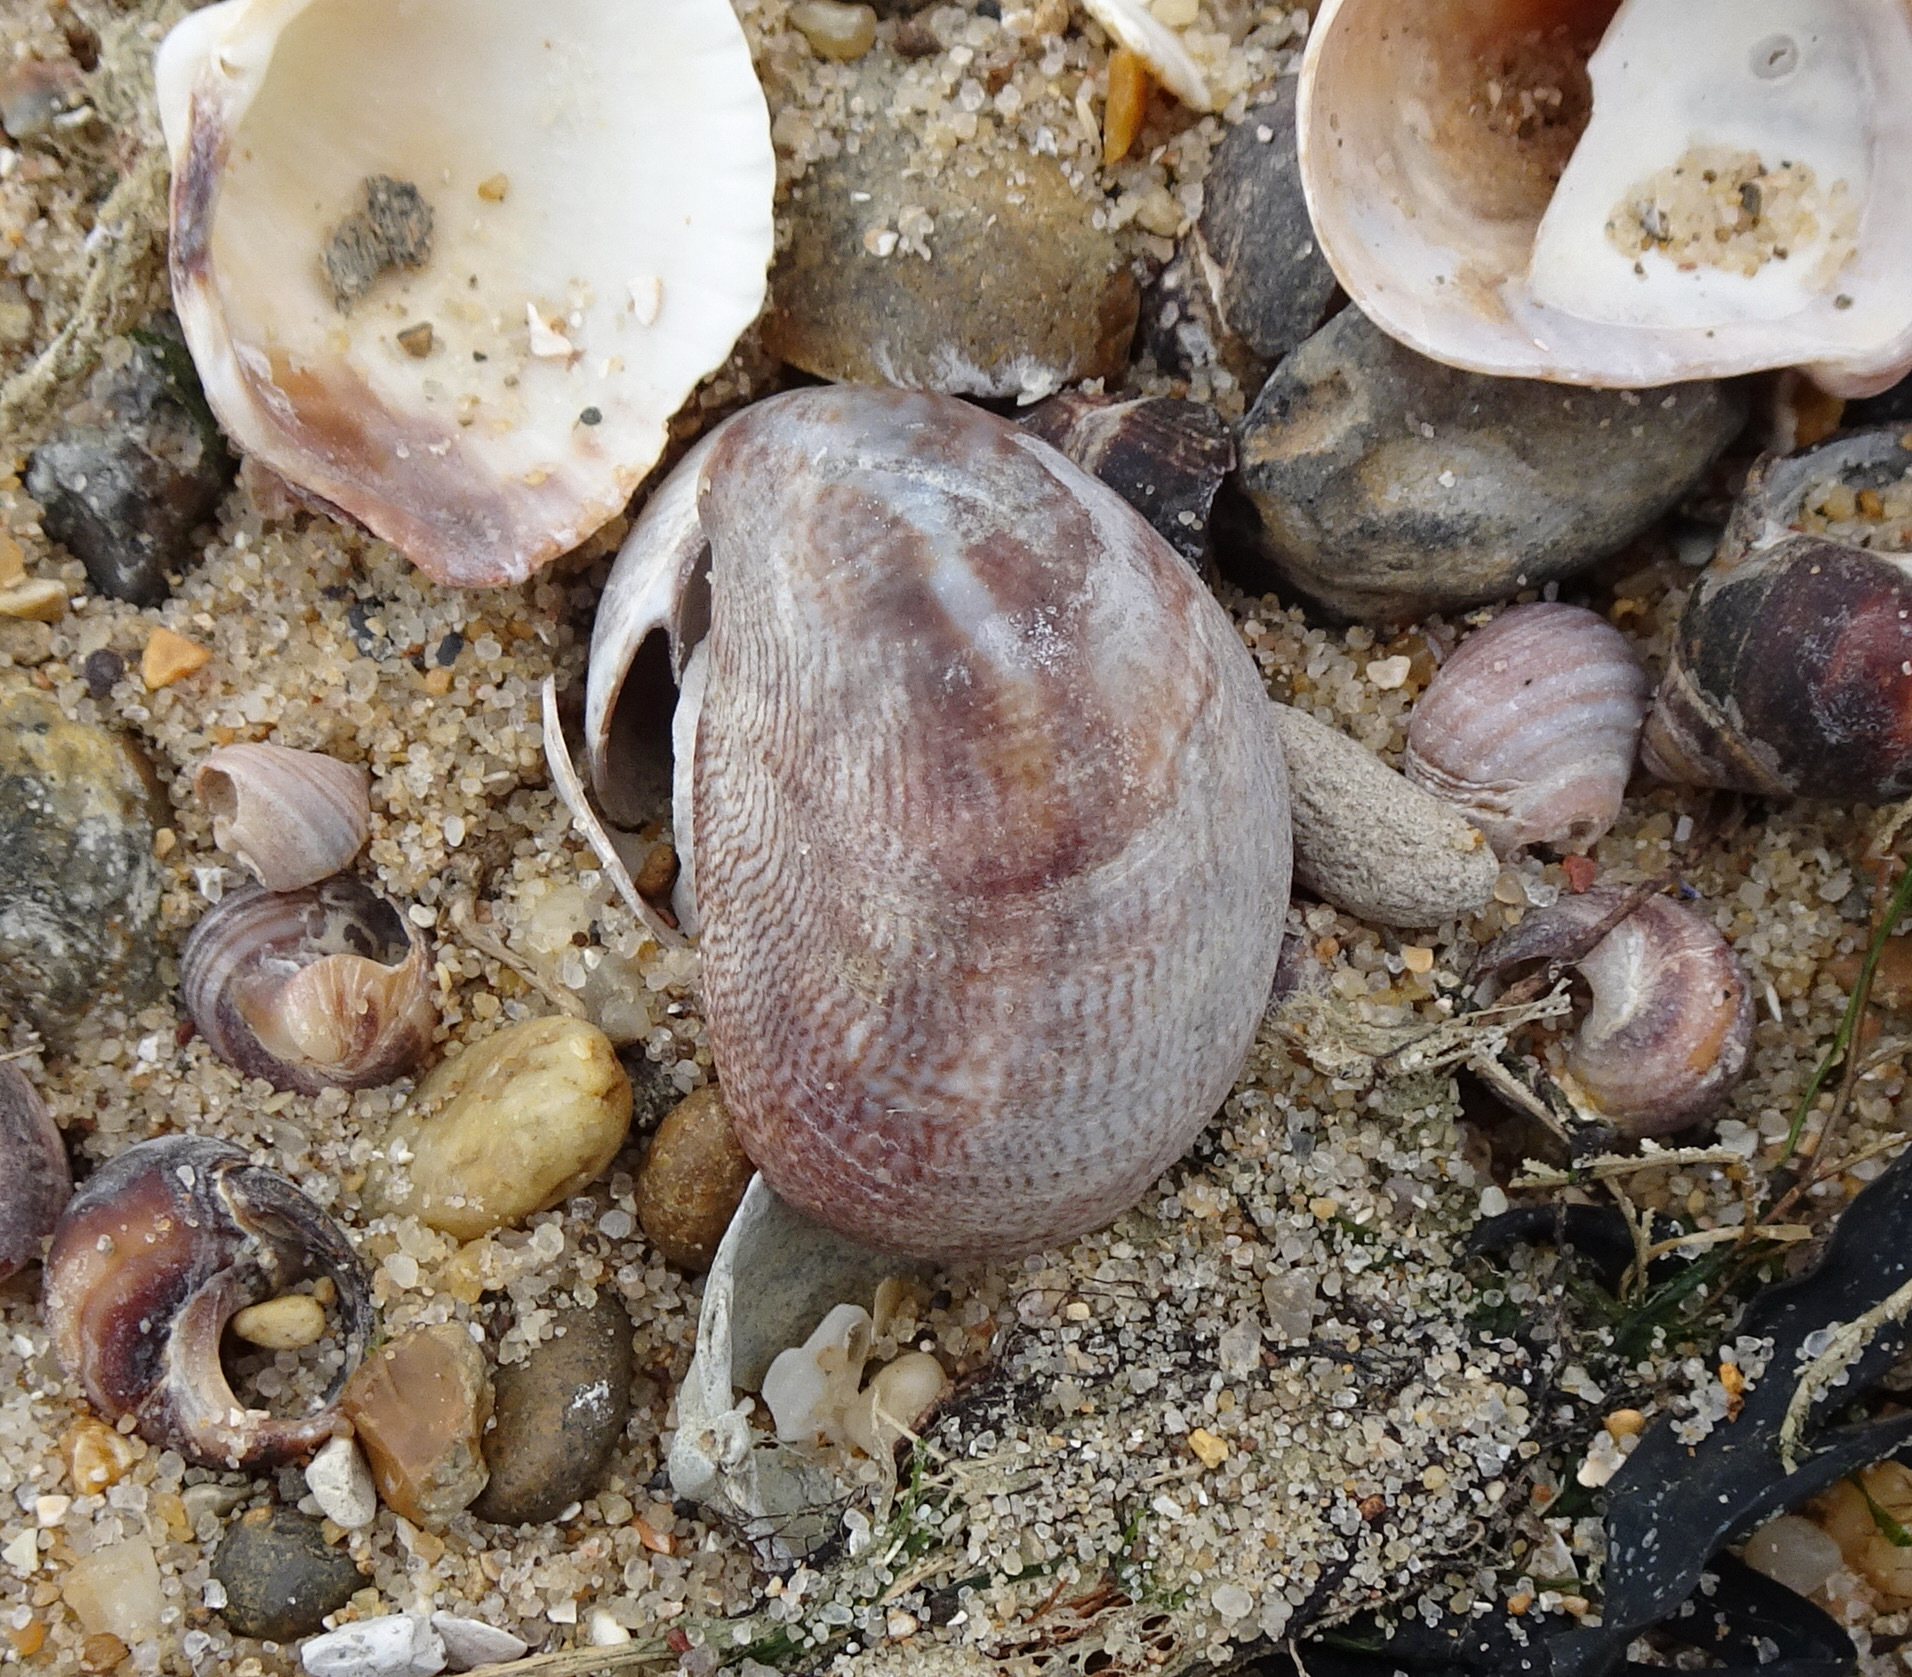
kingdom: Animalia
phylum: Mollusca
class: Gastropoda
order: Littorinimorpha
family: Calyptraeidae
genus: Crepidula
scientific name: Crepidula fornicata
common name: Slipper limpet
